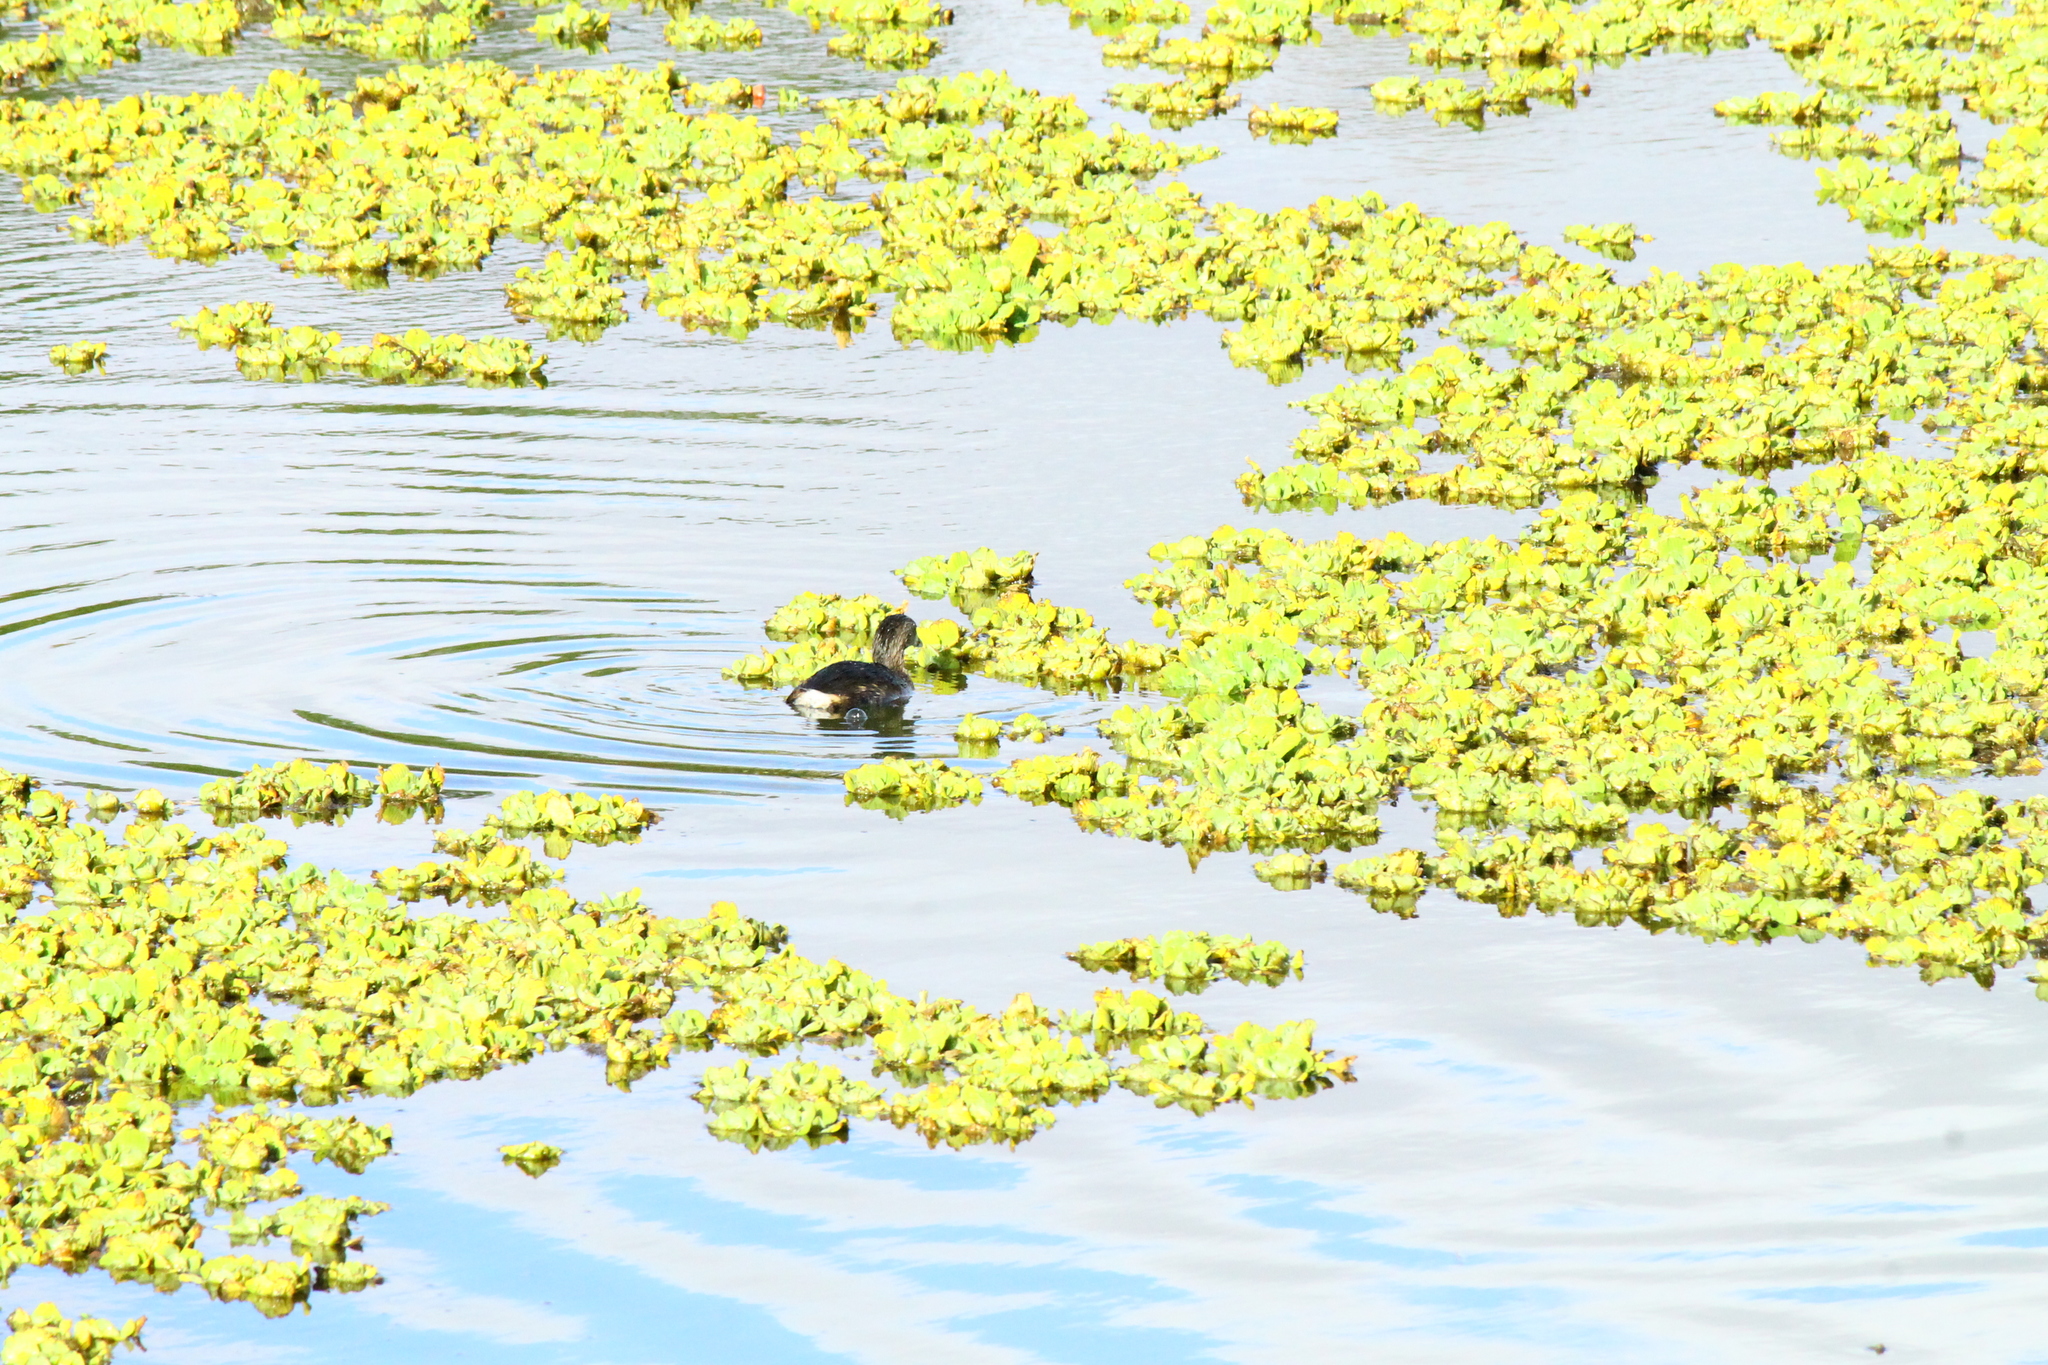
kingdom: Animalia
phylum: Chordata
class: Aves
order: Podicipediformes
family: Podicipedidae
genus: Podilymbus
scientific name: Podilymbus podiceps
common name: Pied-billed grebe
